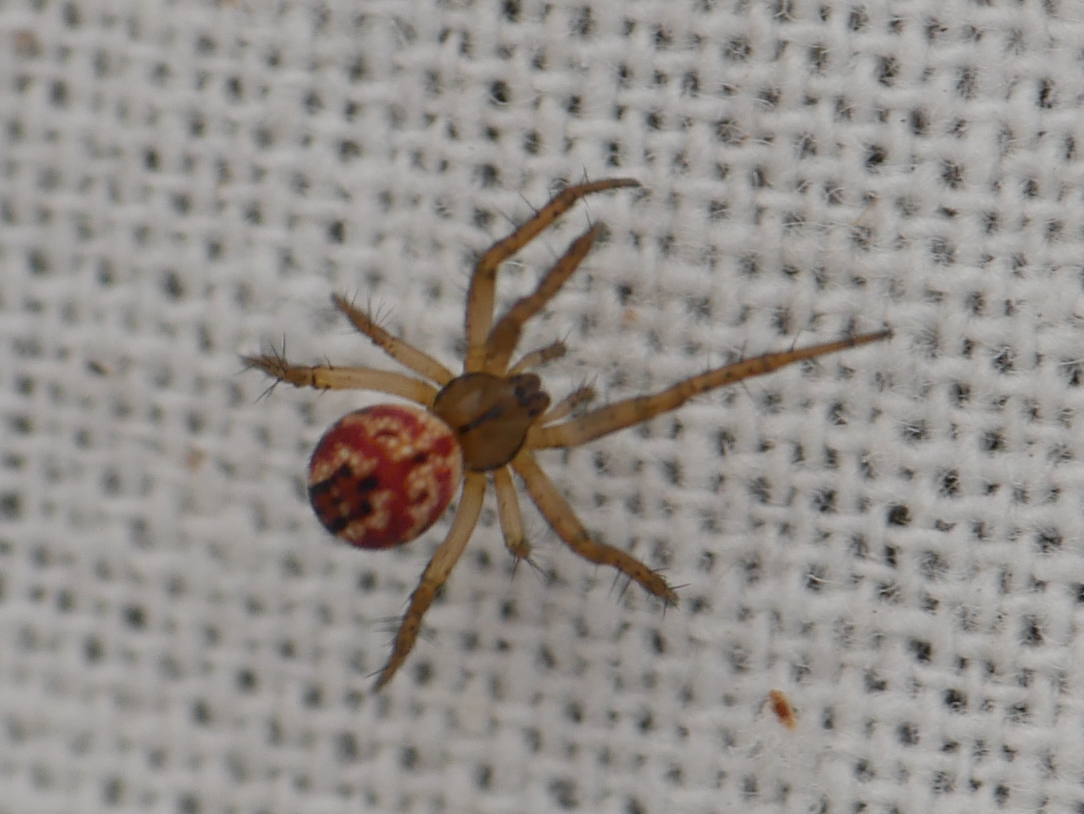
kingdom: Animalia
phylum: Arthropoda
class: Arachnida
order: Araneae
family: Araneidae
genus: Mangora
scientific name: Mangora acalypha
